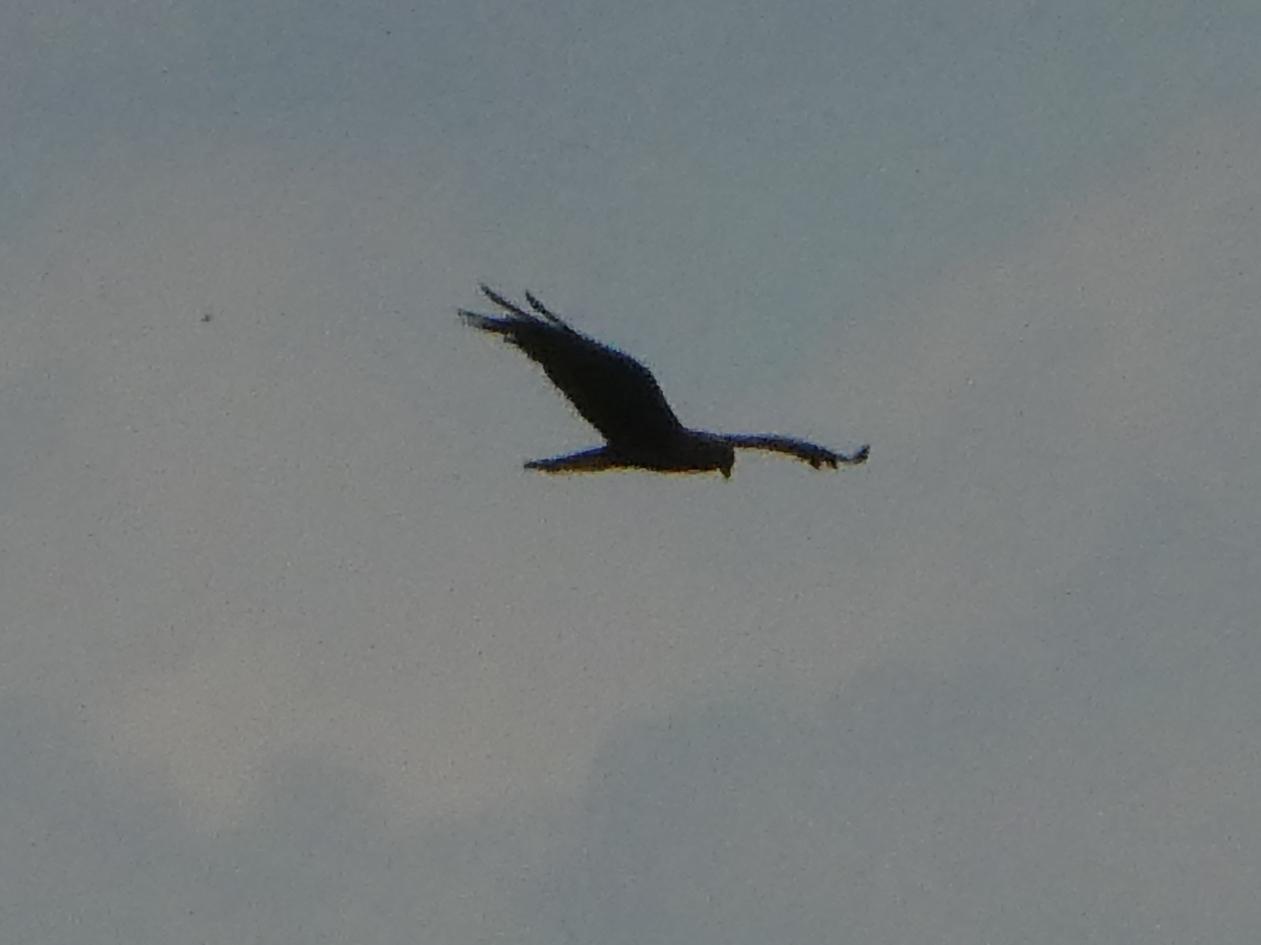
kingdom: Animalia
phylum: Chordata
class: Aves
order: Accipitriformes
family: Accipitridae
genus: Circus
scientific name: Circus aeruginosus
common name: Western marsh harrier
